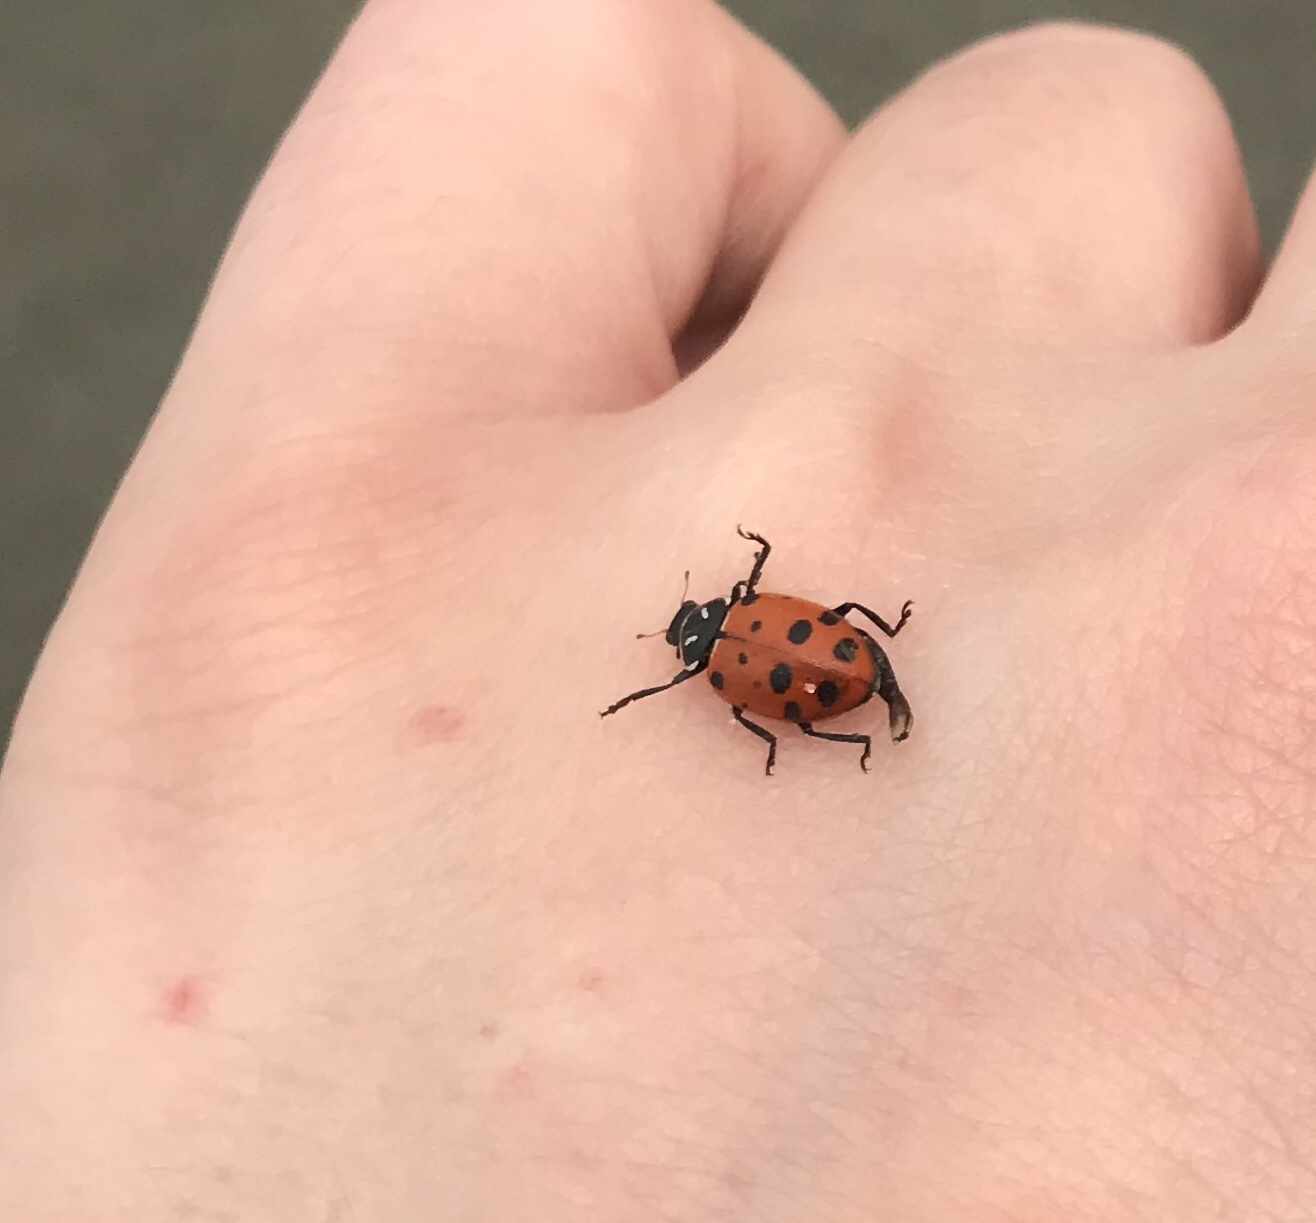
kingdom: Animalia
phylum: Arthropoda
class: Insecta
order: Coleoptera
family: Coccinellidae
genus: Hippodamia
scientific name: Hippodamia convergens
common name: Convergent lady beetle
